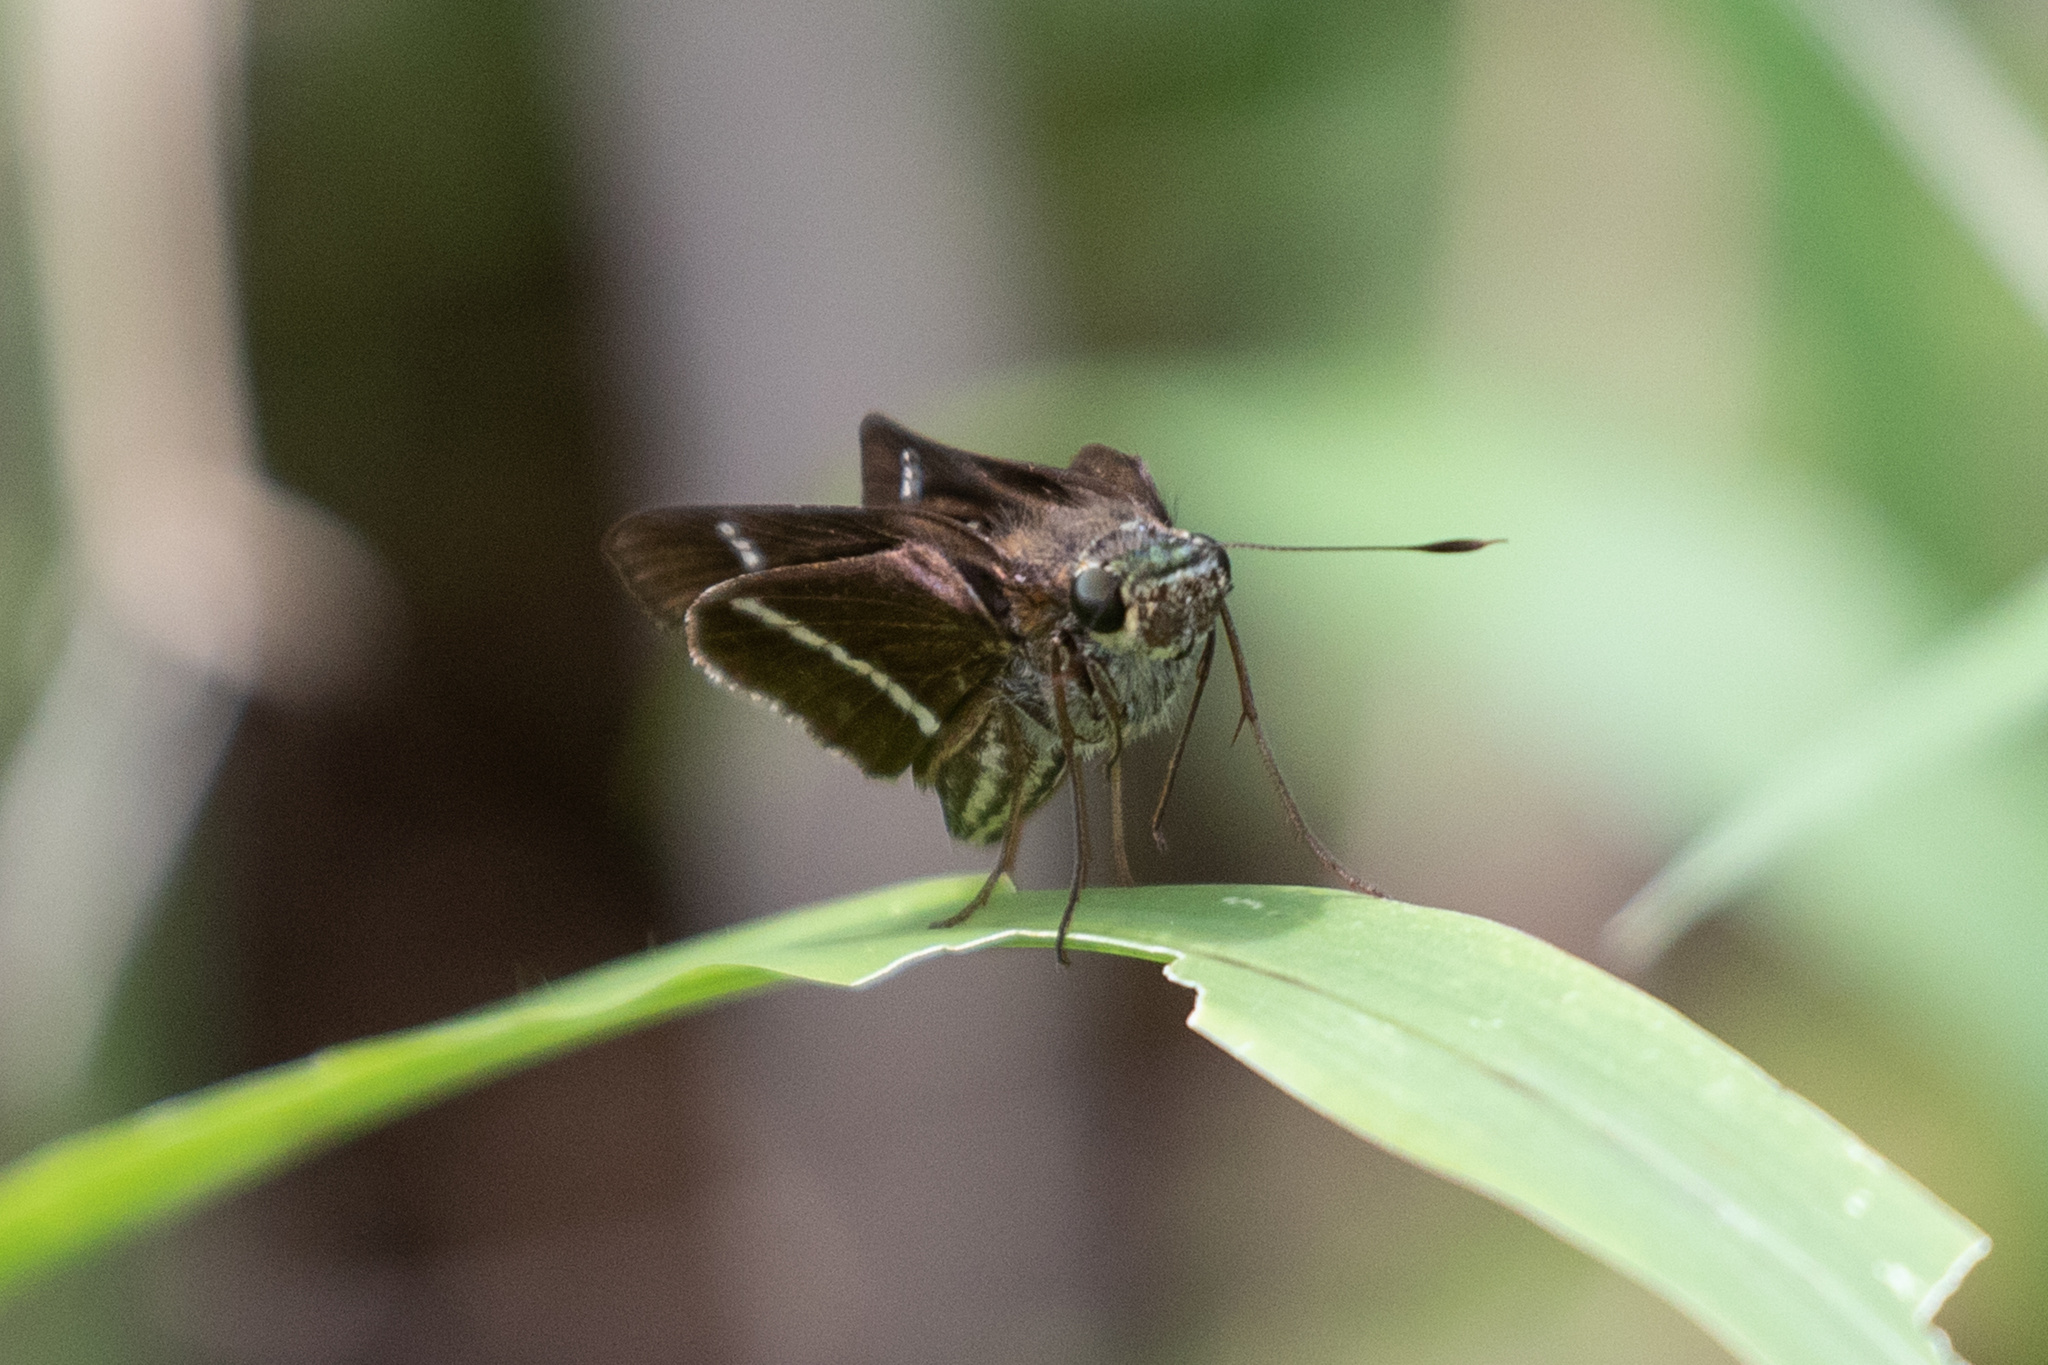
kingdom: Animalia
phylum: Arthropoda
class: Insecta
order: Lepidoptera
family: Hesperiidae
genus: Panoquina
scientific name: Panoquina nero
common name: Nero skipper
